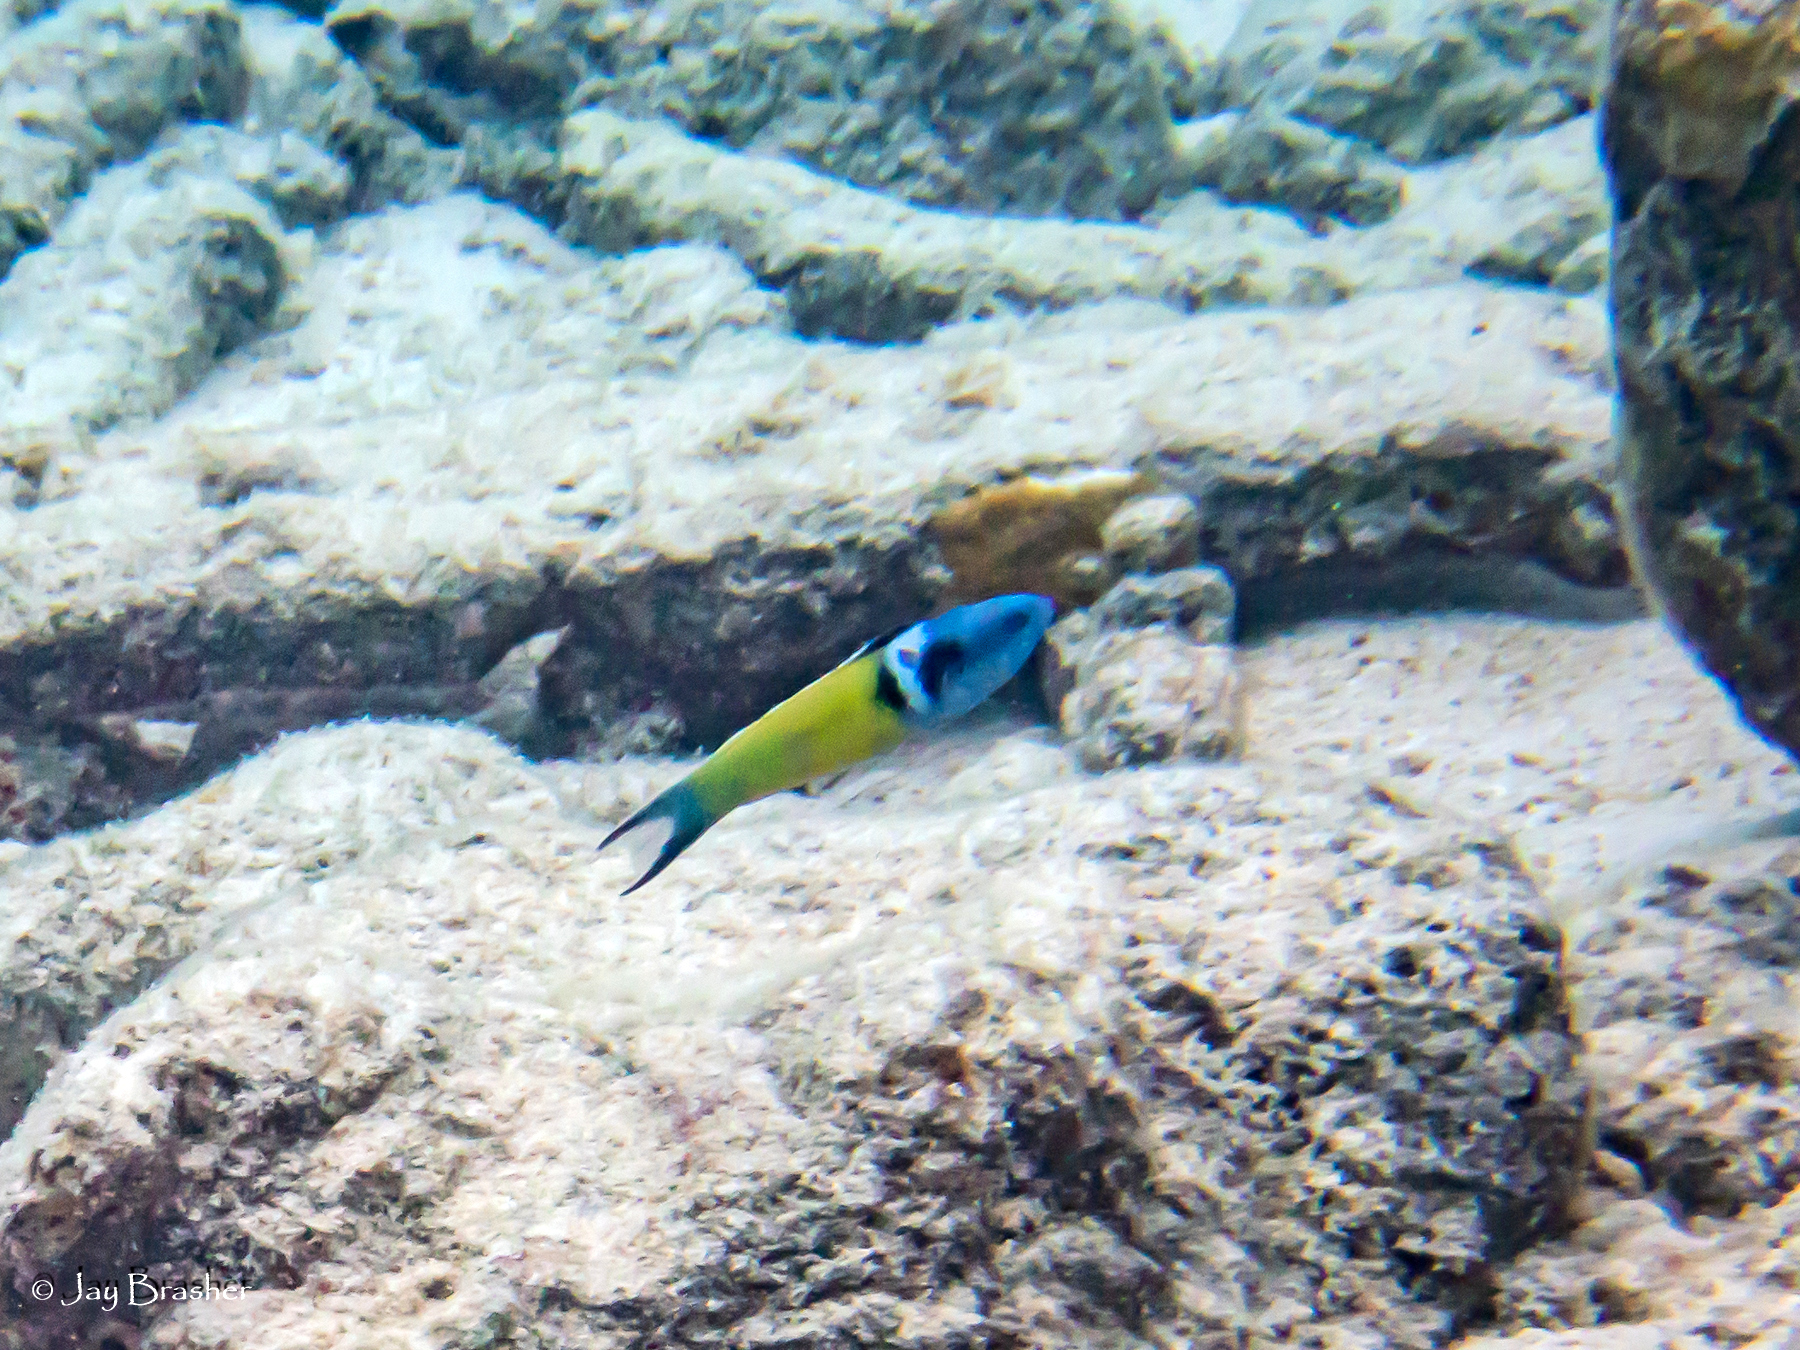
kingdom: Animalia
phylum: Chordata
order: Perciformes
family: Labridae
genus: Thalassoma
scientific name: Thalassoma bifasciatum
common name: Bluehead wrasse
